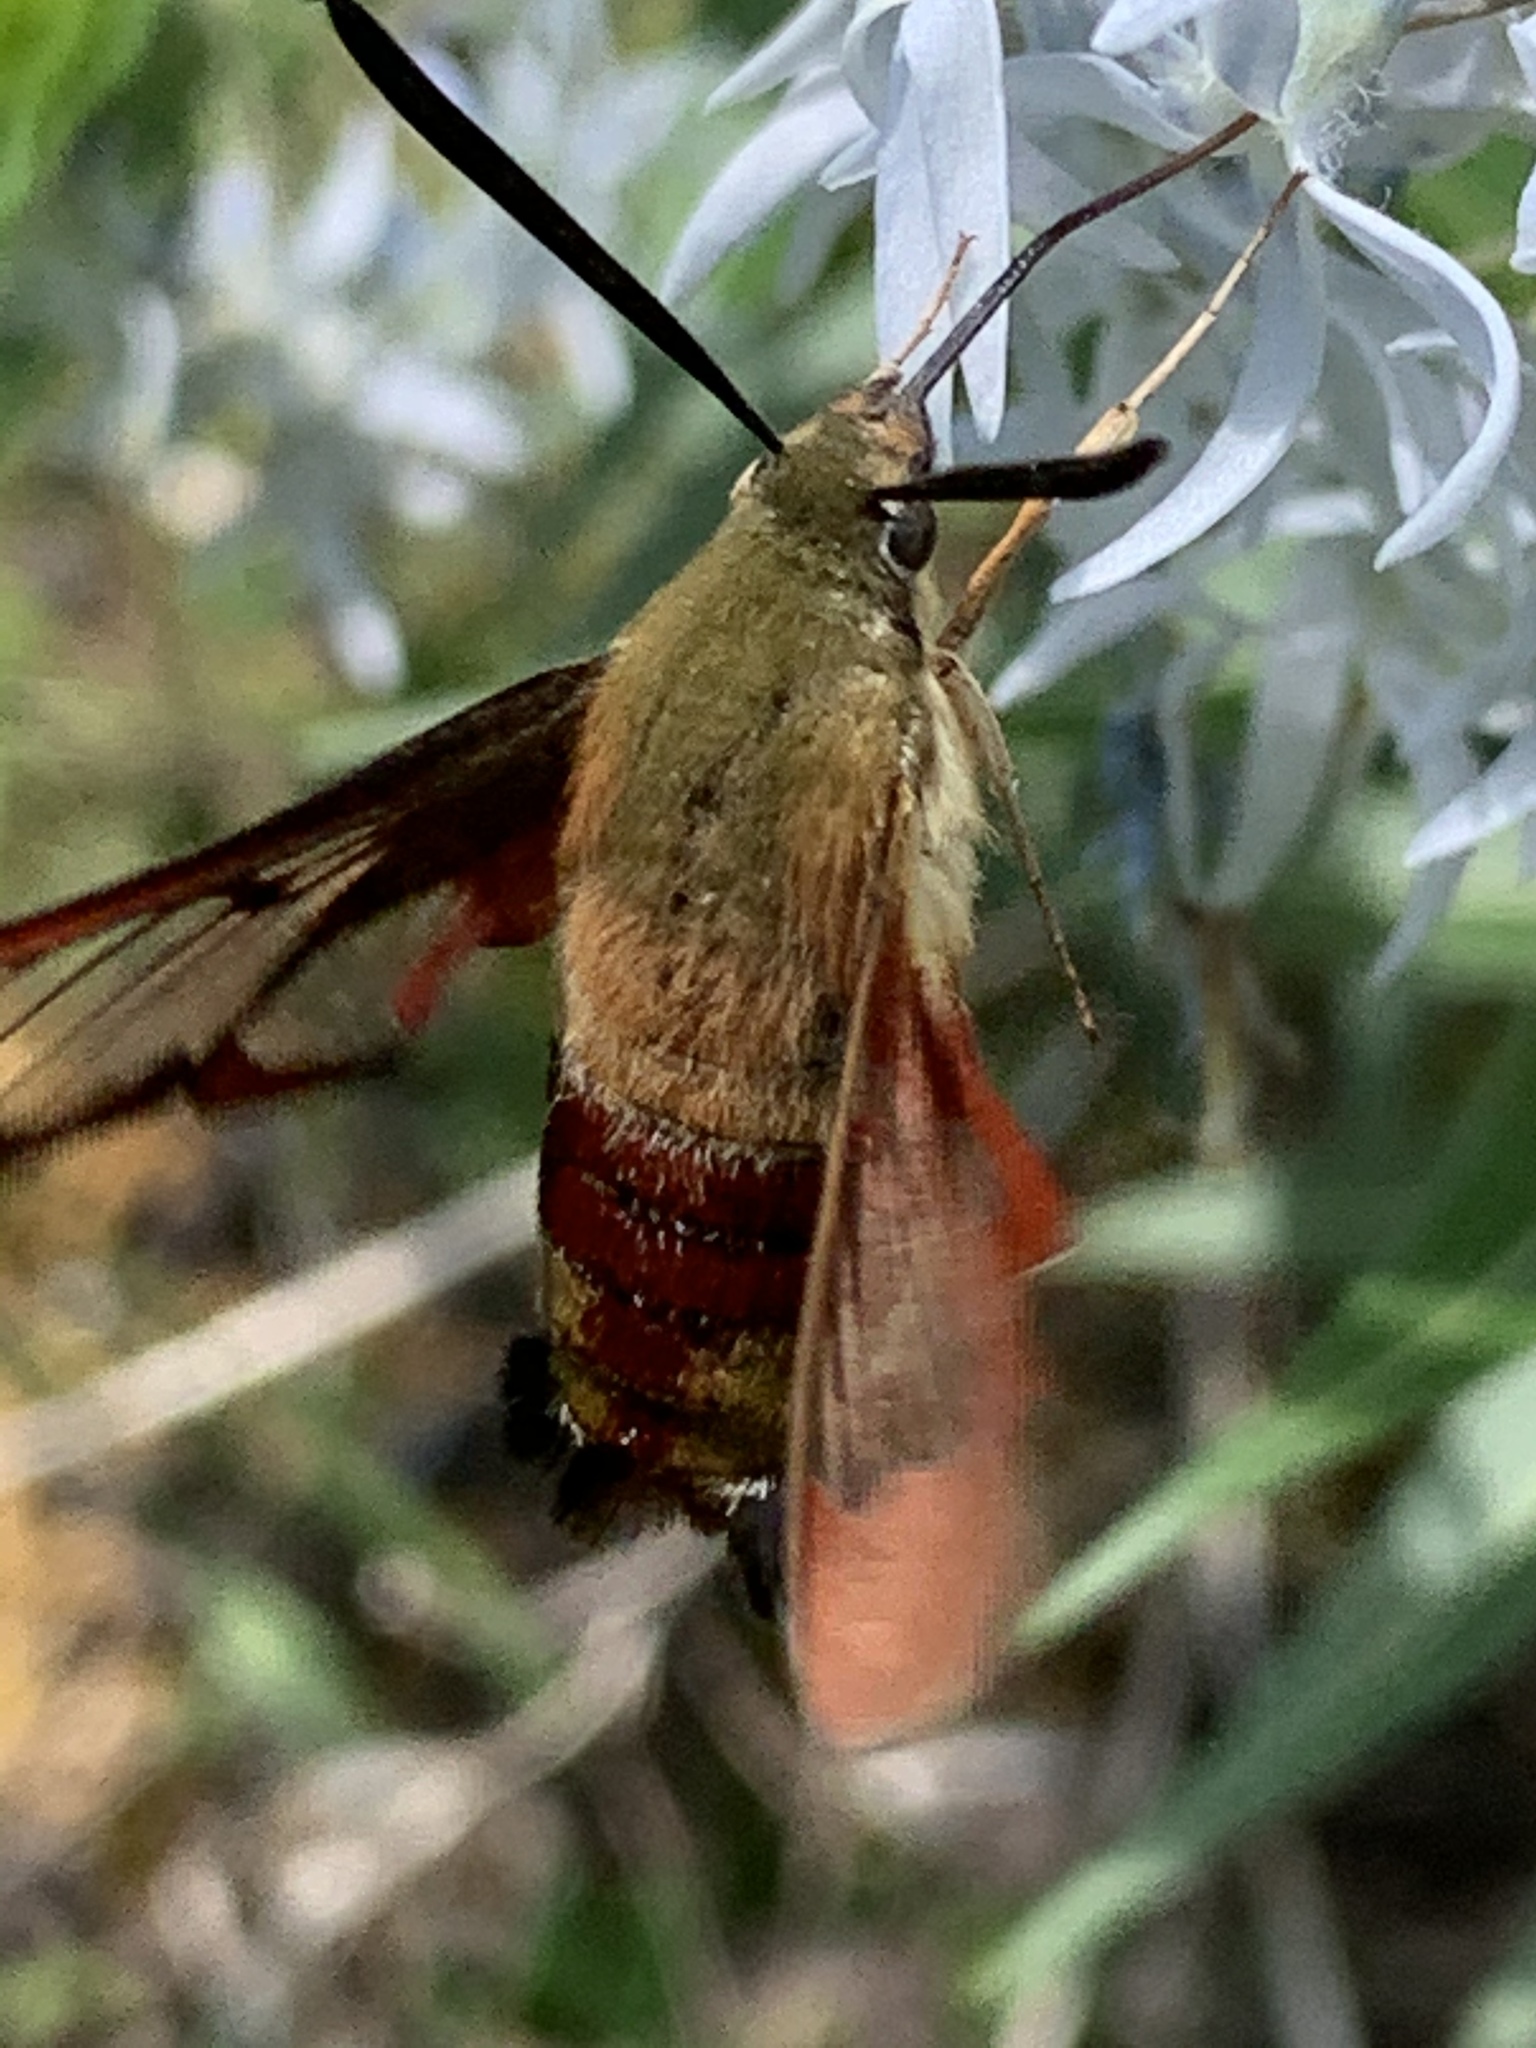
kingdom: Animalia
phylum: Arthropoda
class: Insecta
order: Lepidoptera
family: Sphingidae
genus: Hemaris
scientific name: Hemaris thysbe
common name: Common clear-wing
